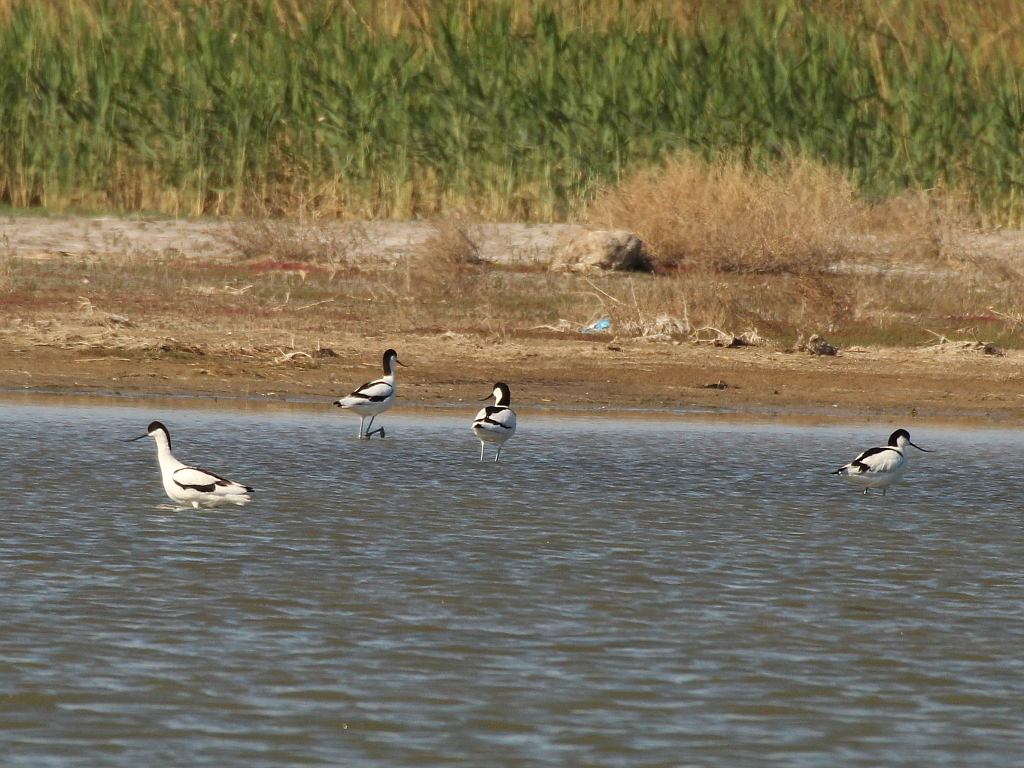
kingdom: Animalia
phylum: Chordata
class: Aves
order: Charadriiformes
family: Recurvirostridae
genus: Recurvirostra
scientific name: Recurvirostra avosetta
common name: Pied avocet
